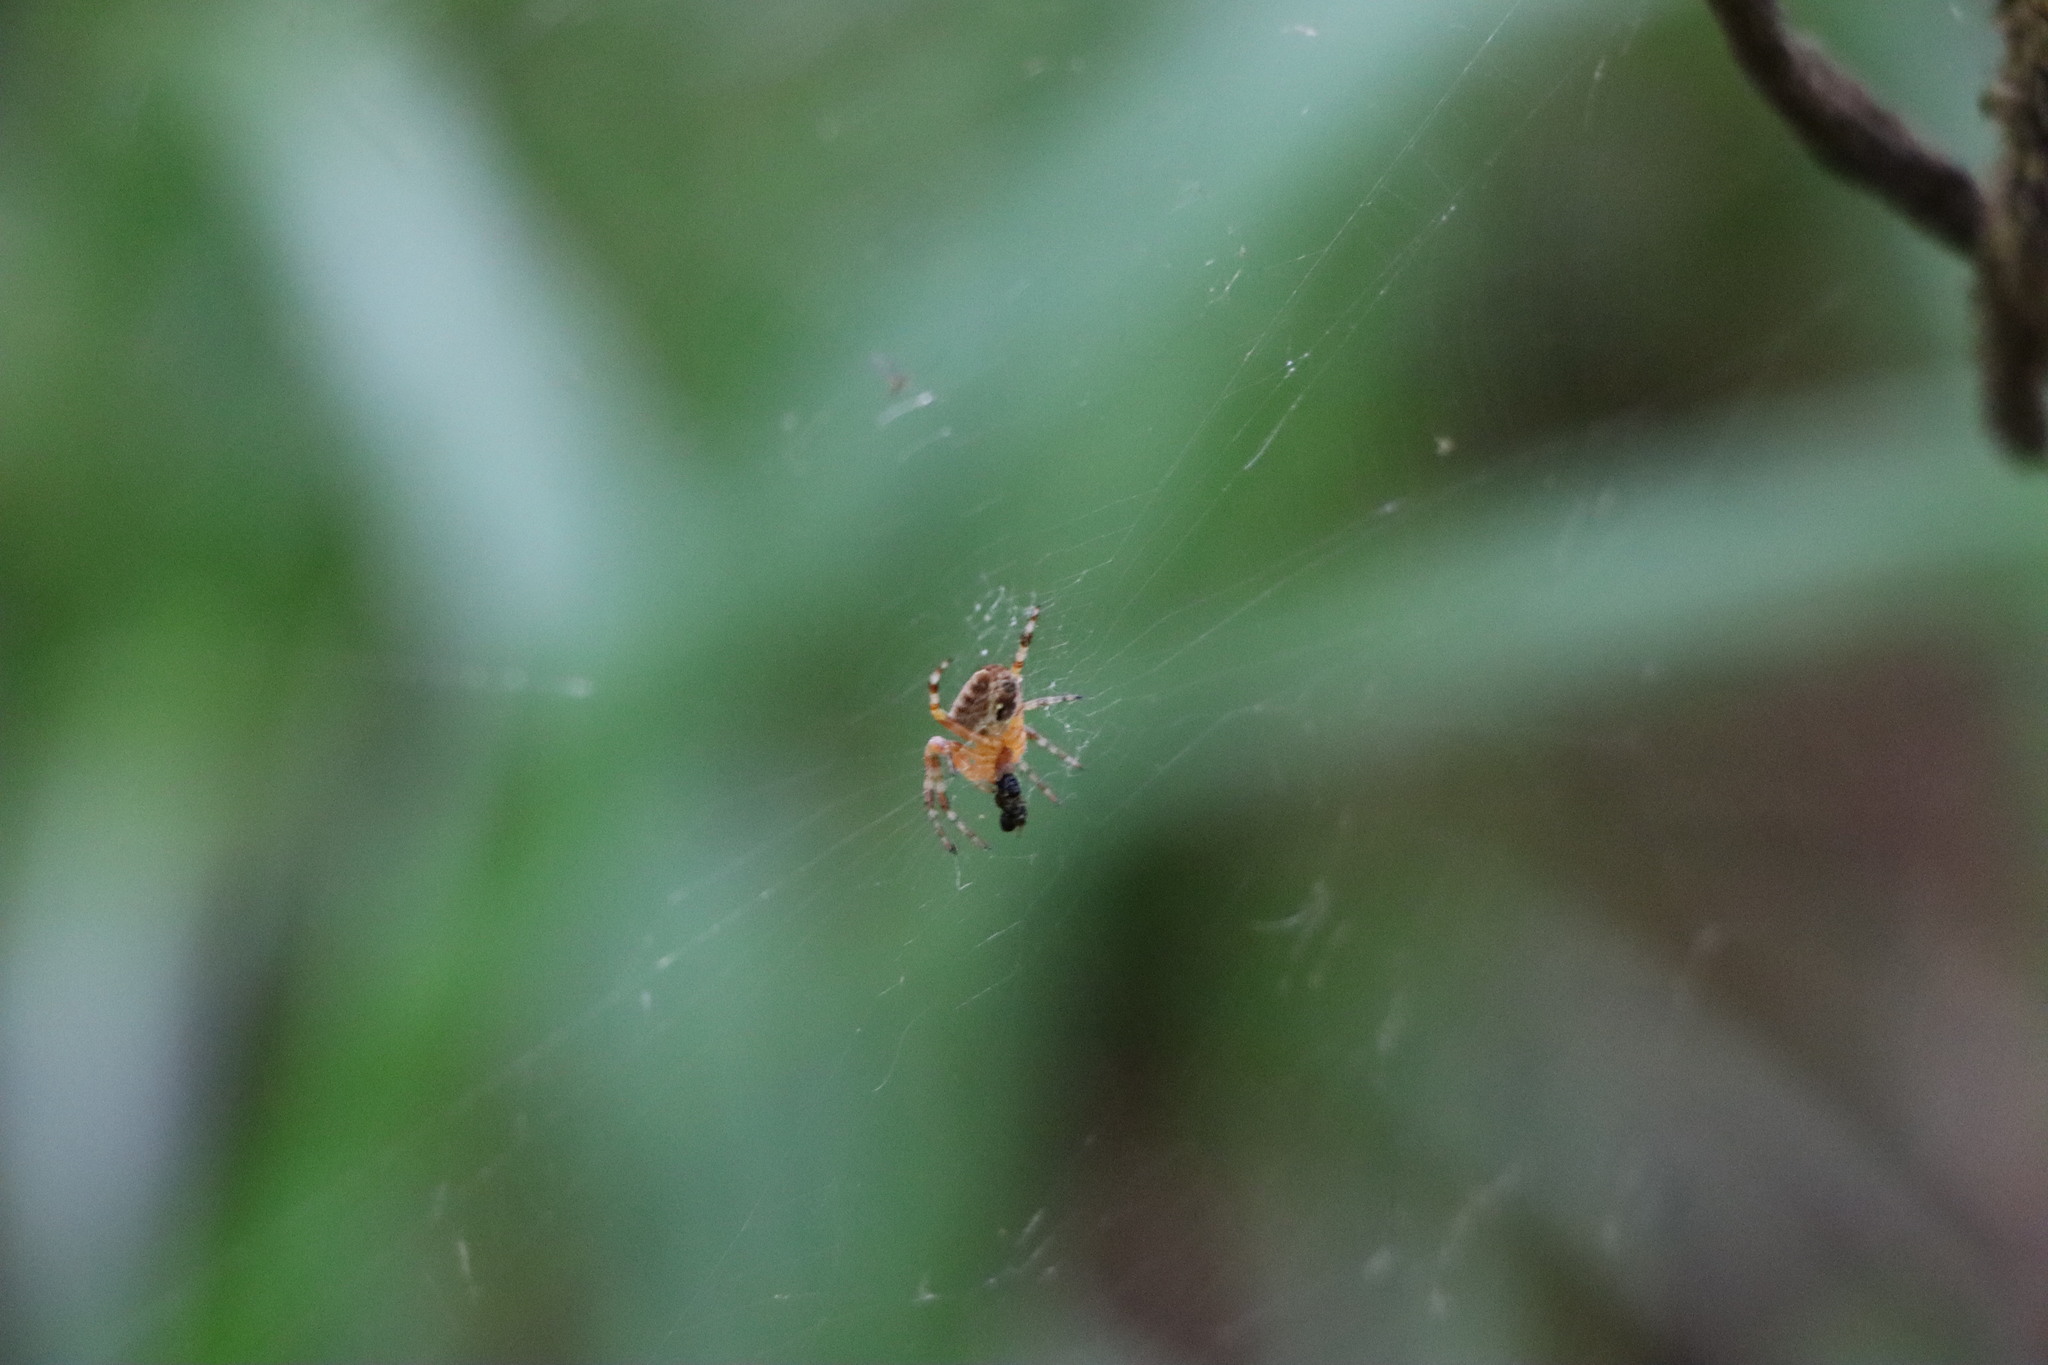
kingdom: Animalia
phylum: Arthropoda
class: Arachnida
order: Araneae
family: Araneidae
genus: Araneus
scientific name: Araneus diadematus
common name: Cross orbweaver
